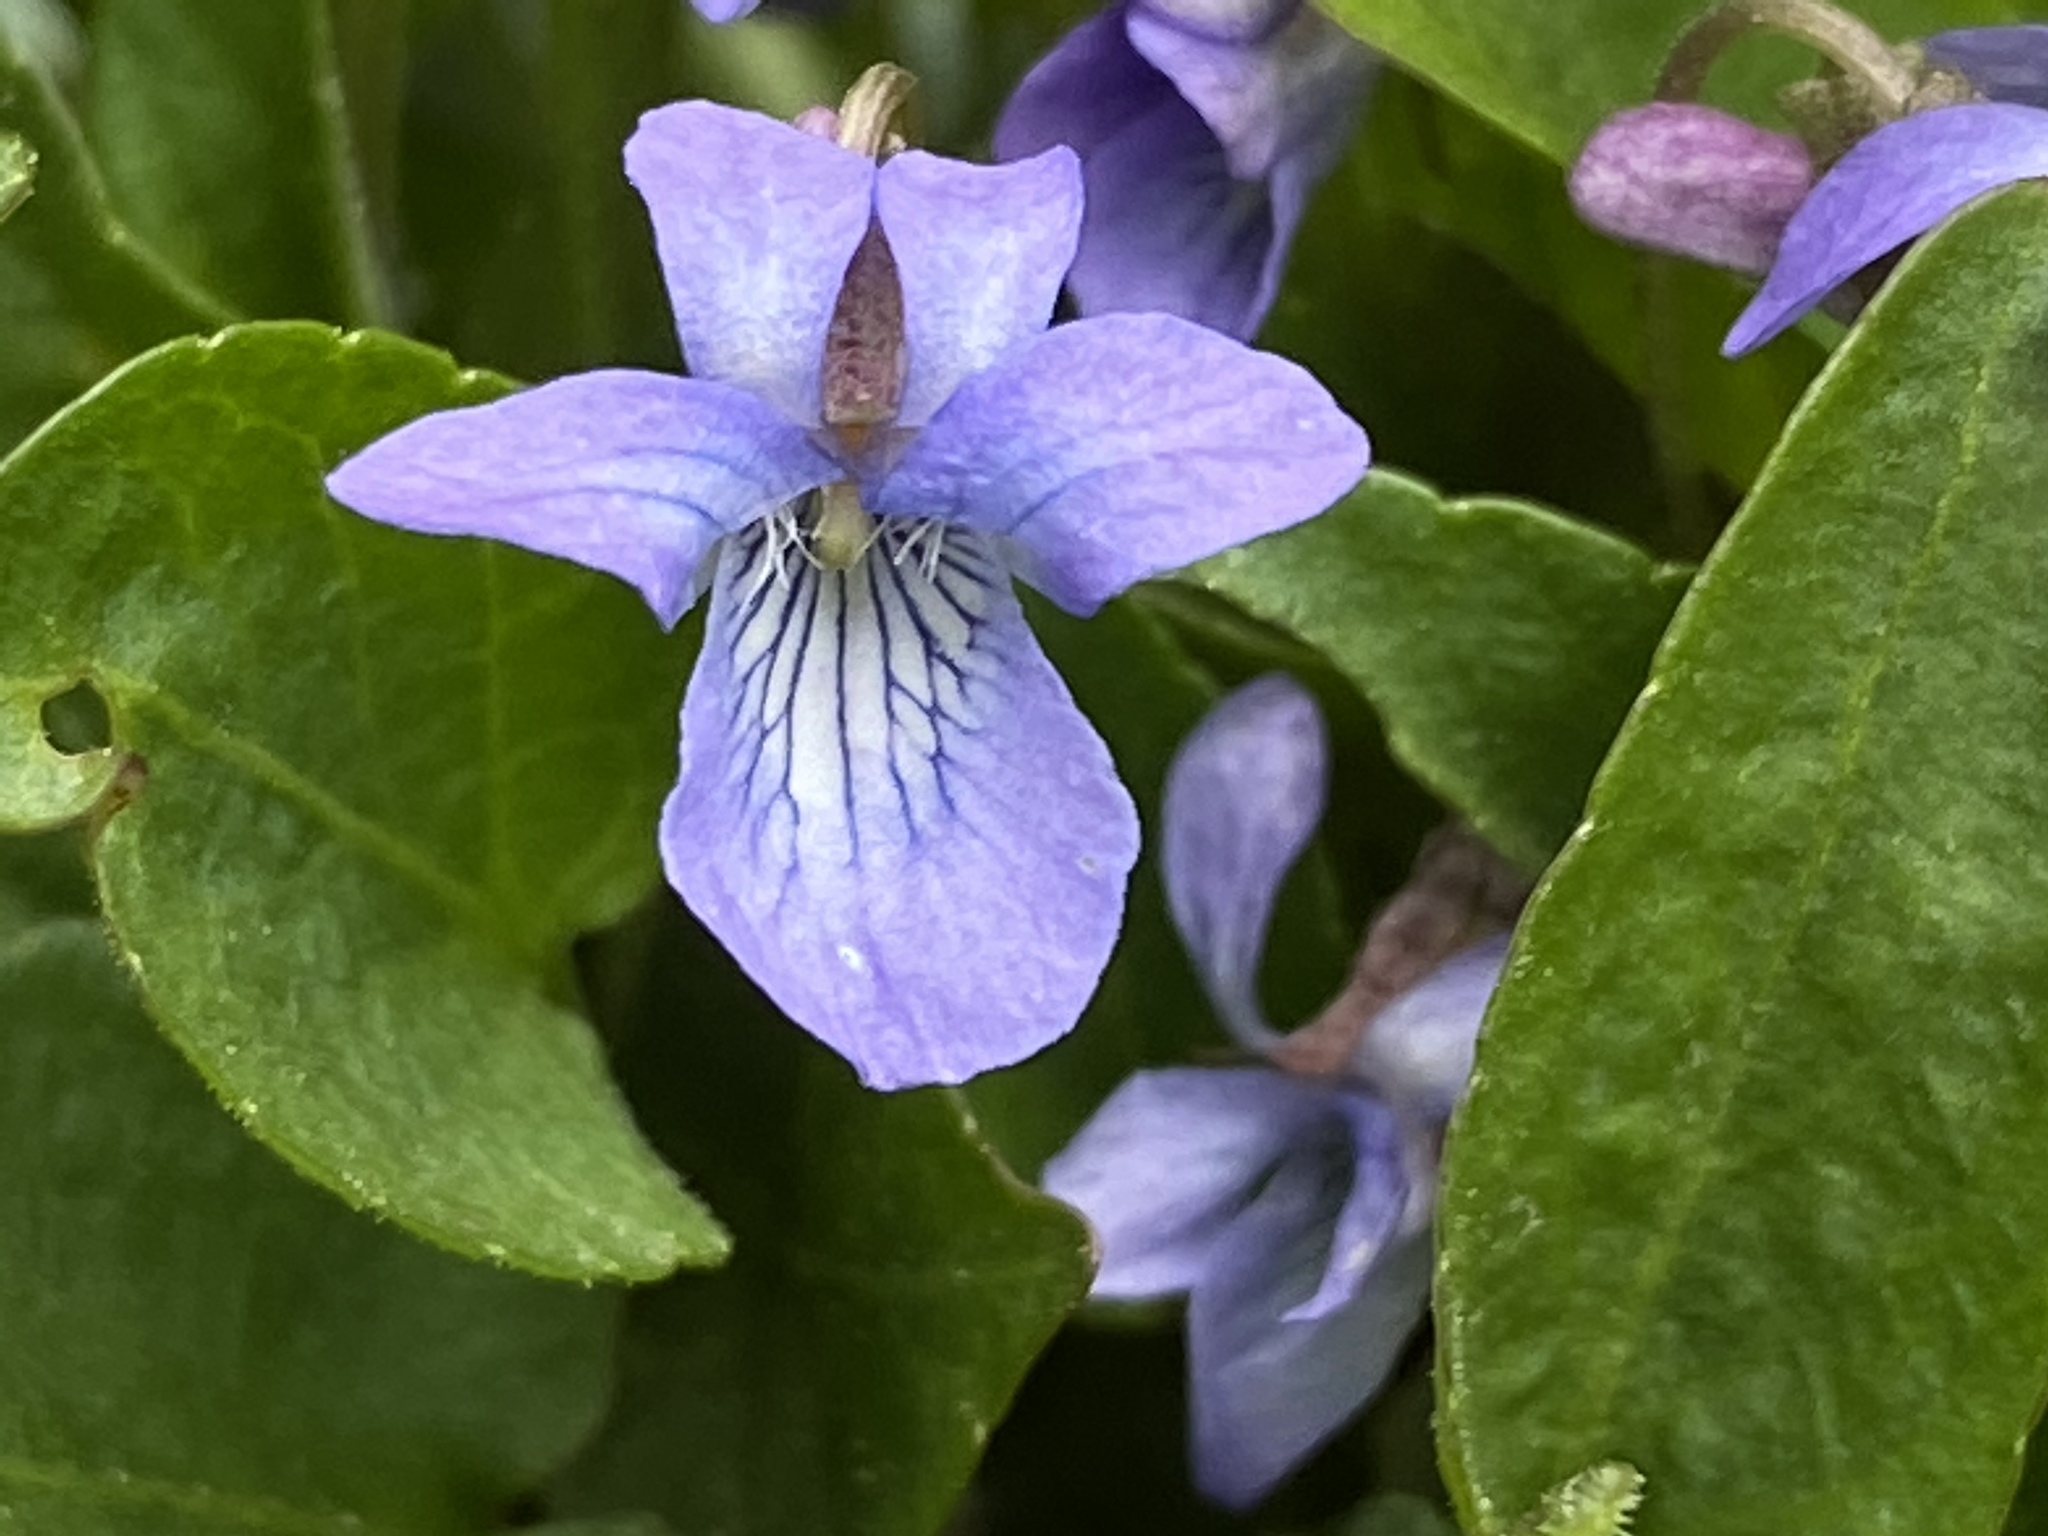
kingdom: Plantae
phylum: Tracheophyta
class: Magnoliopsida
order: Malpighiales
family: Violaceae
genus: Viola
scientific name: Viola adunca
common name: Sand violet
